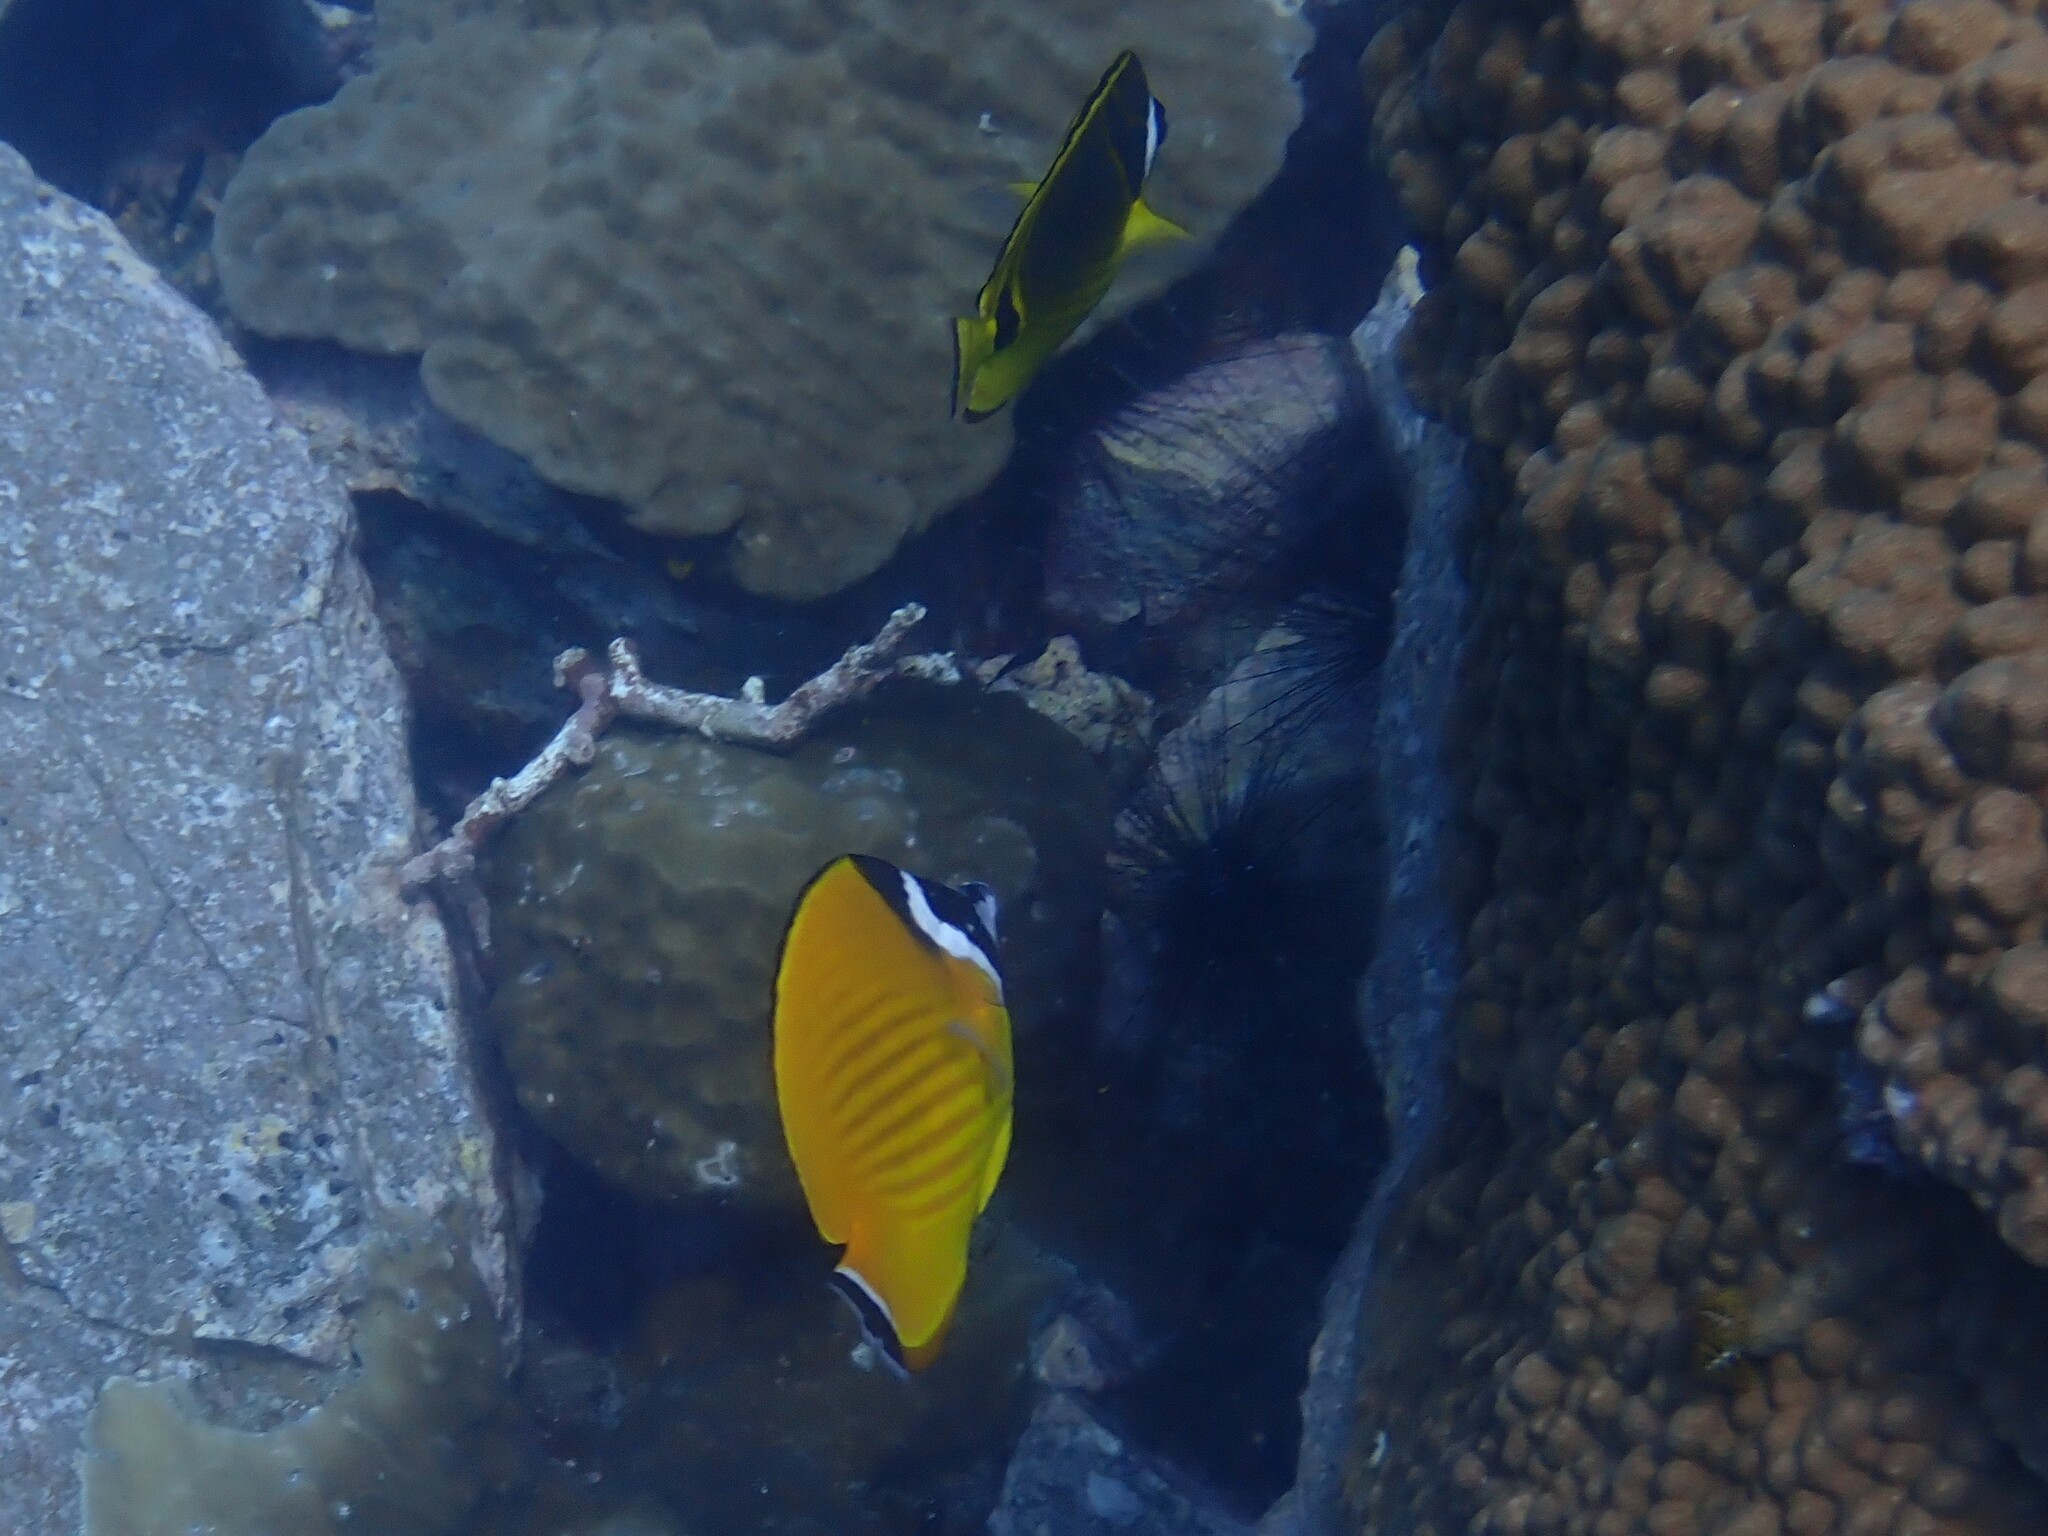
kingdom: Animalia
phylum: Chordata
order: Perciformes
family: Chaetodontidae
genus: Chaetodon
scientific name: Chaetodon wiebeli
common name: Butterflyfish
